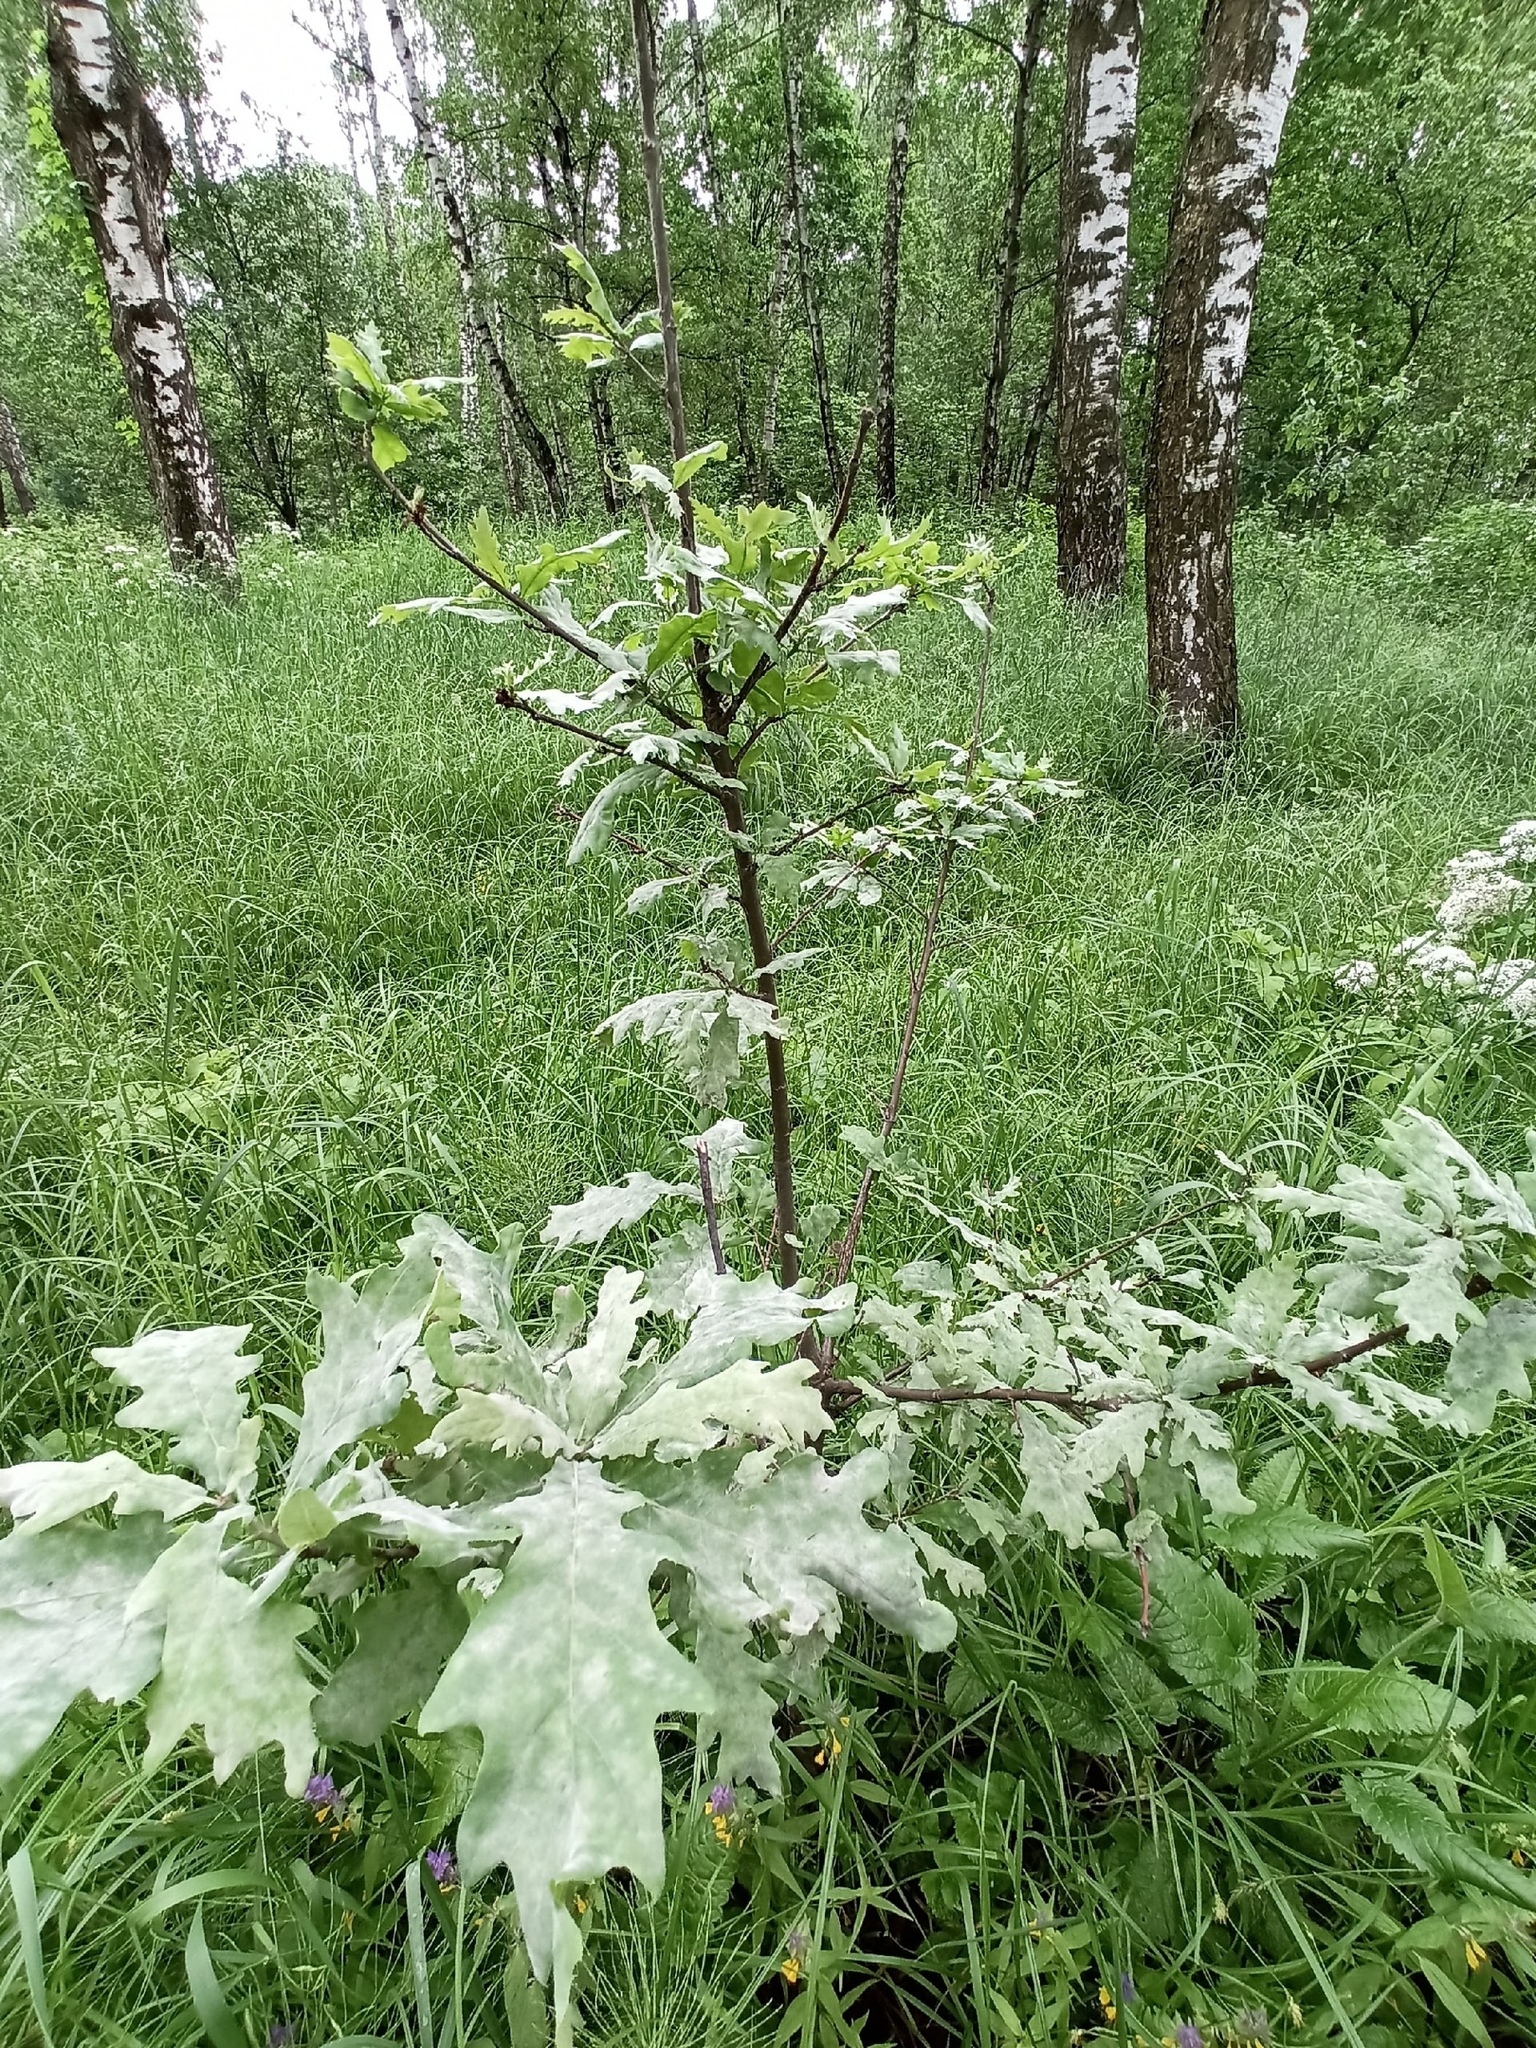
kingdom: Plantae
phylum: Tracheophyta
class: Magnoliopsida
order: Fagales
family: Fagaceae
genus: Quercus
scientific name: Quercus robur
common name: Pedunculate oak
